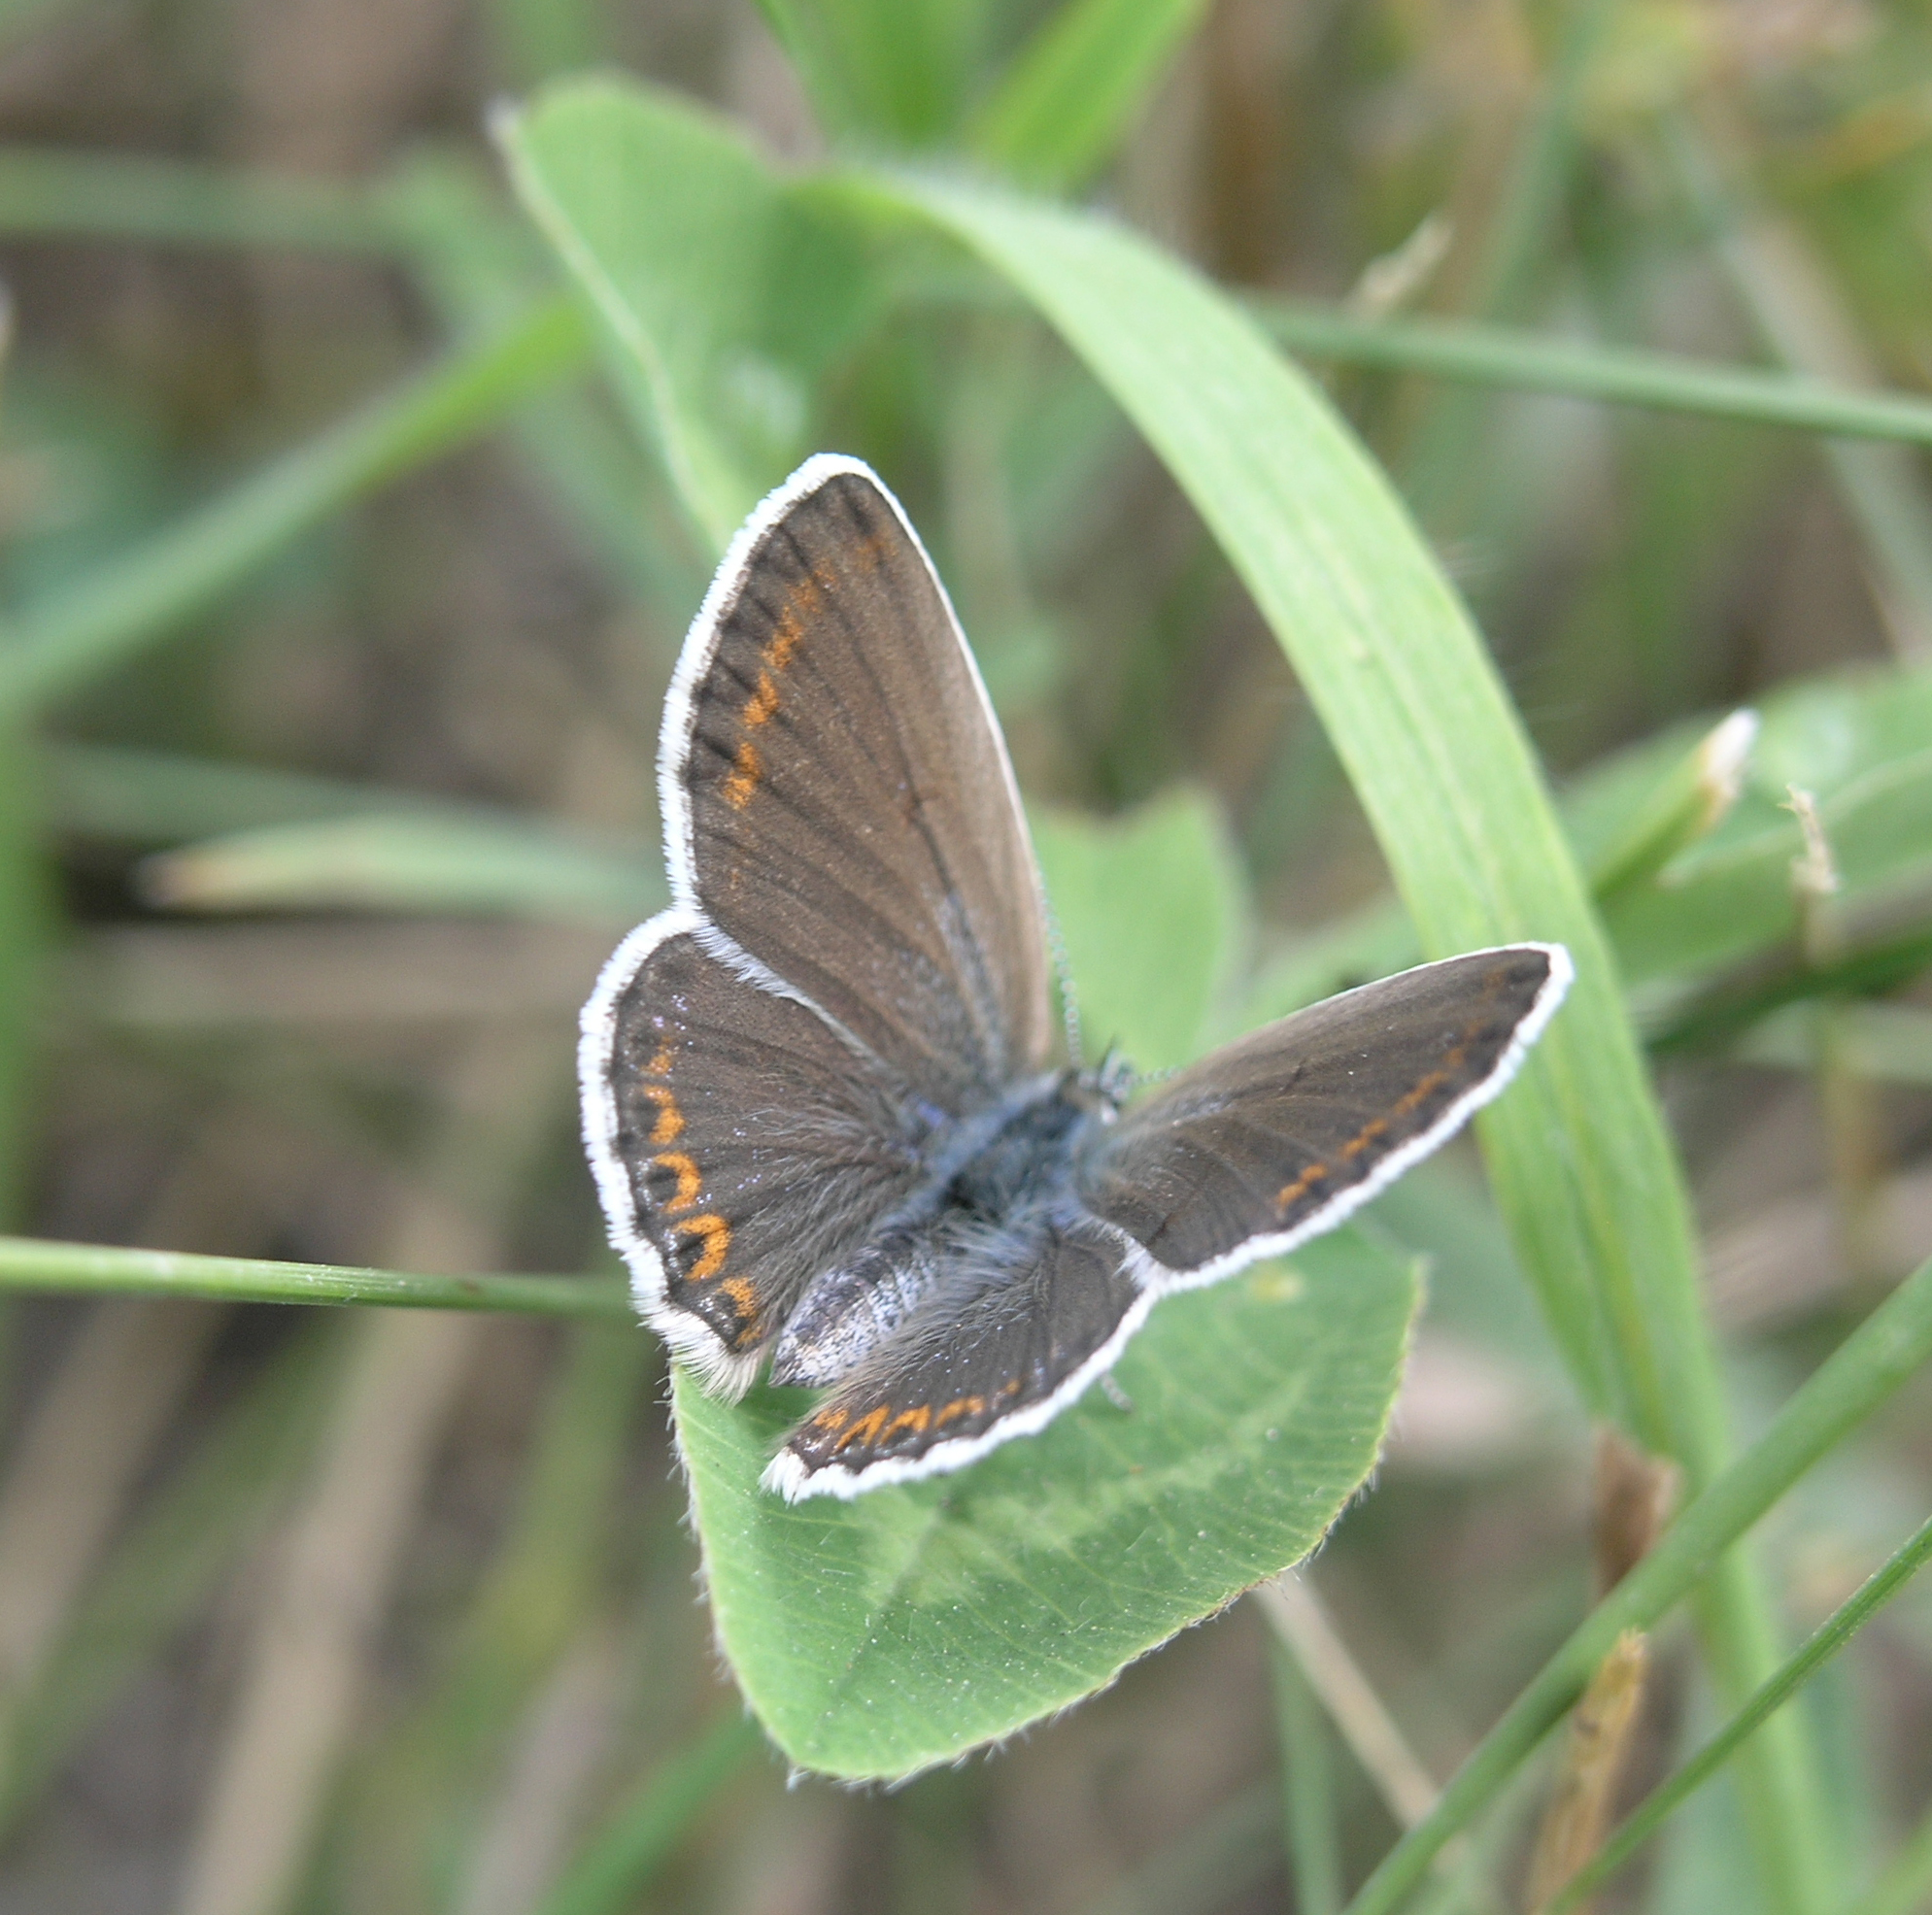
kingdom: Animalia
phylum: Arthropoda
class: Insecta
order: Lepidoptera
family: Lycaenidae
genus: Plebejus
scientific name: Plebejus argyrognomon
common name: Reverdin's blue
